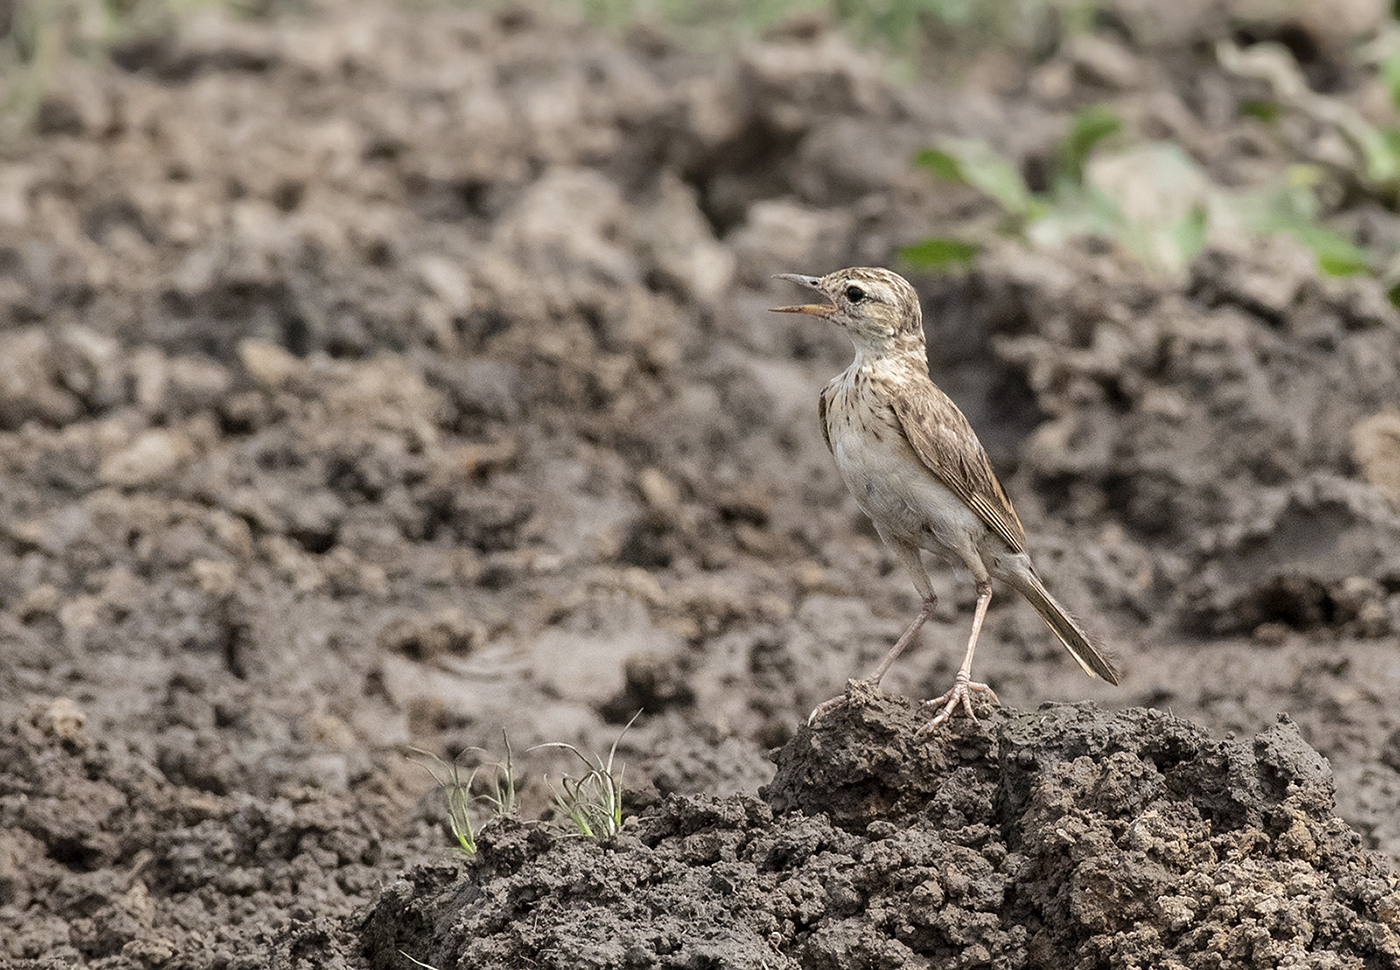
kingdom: Animalia
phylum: Chordata
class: Aves
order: Passeriformes
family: Motacillidae
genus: Anthus
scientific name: Anthus rufulus
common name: Paddyfield pipit
